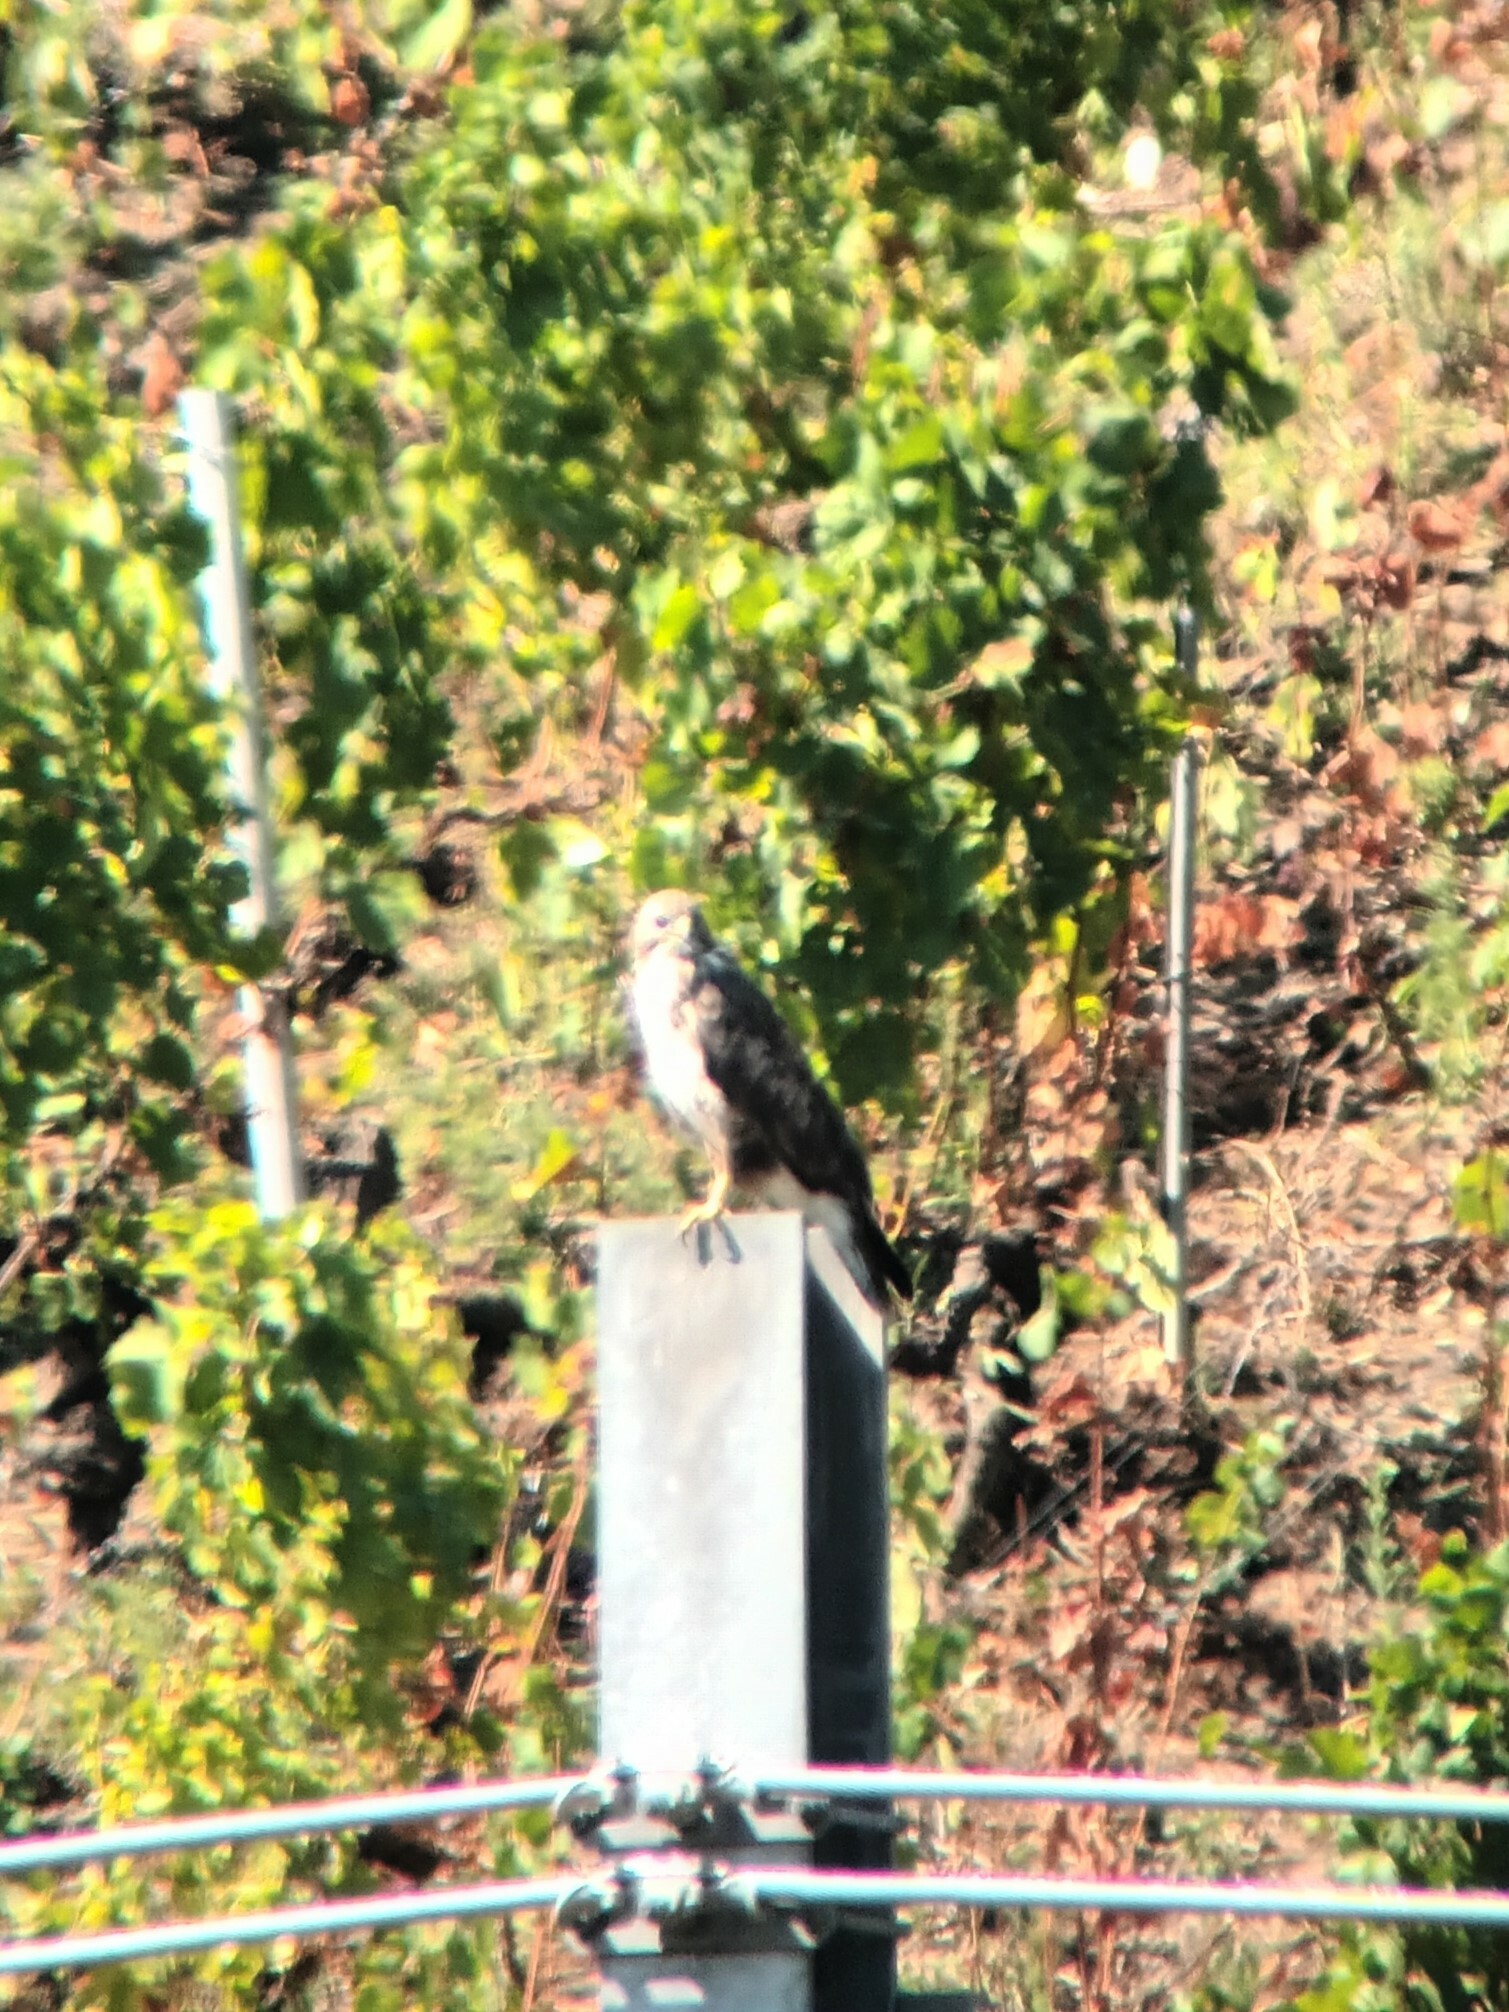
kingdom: Animalia
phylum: Chordata
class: Aves
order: Accipitriformes
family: Accipitridae
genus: Buteo
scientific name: Buteo buteo
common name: Common buzzard
